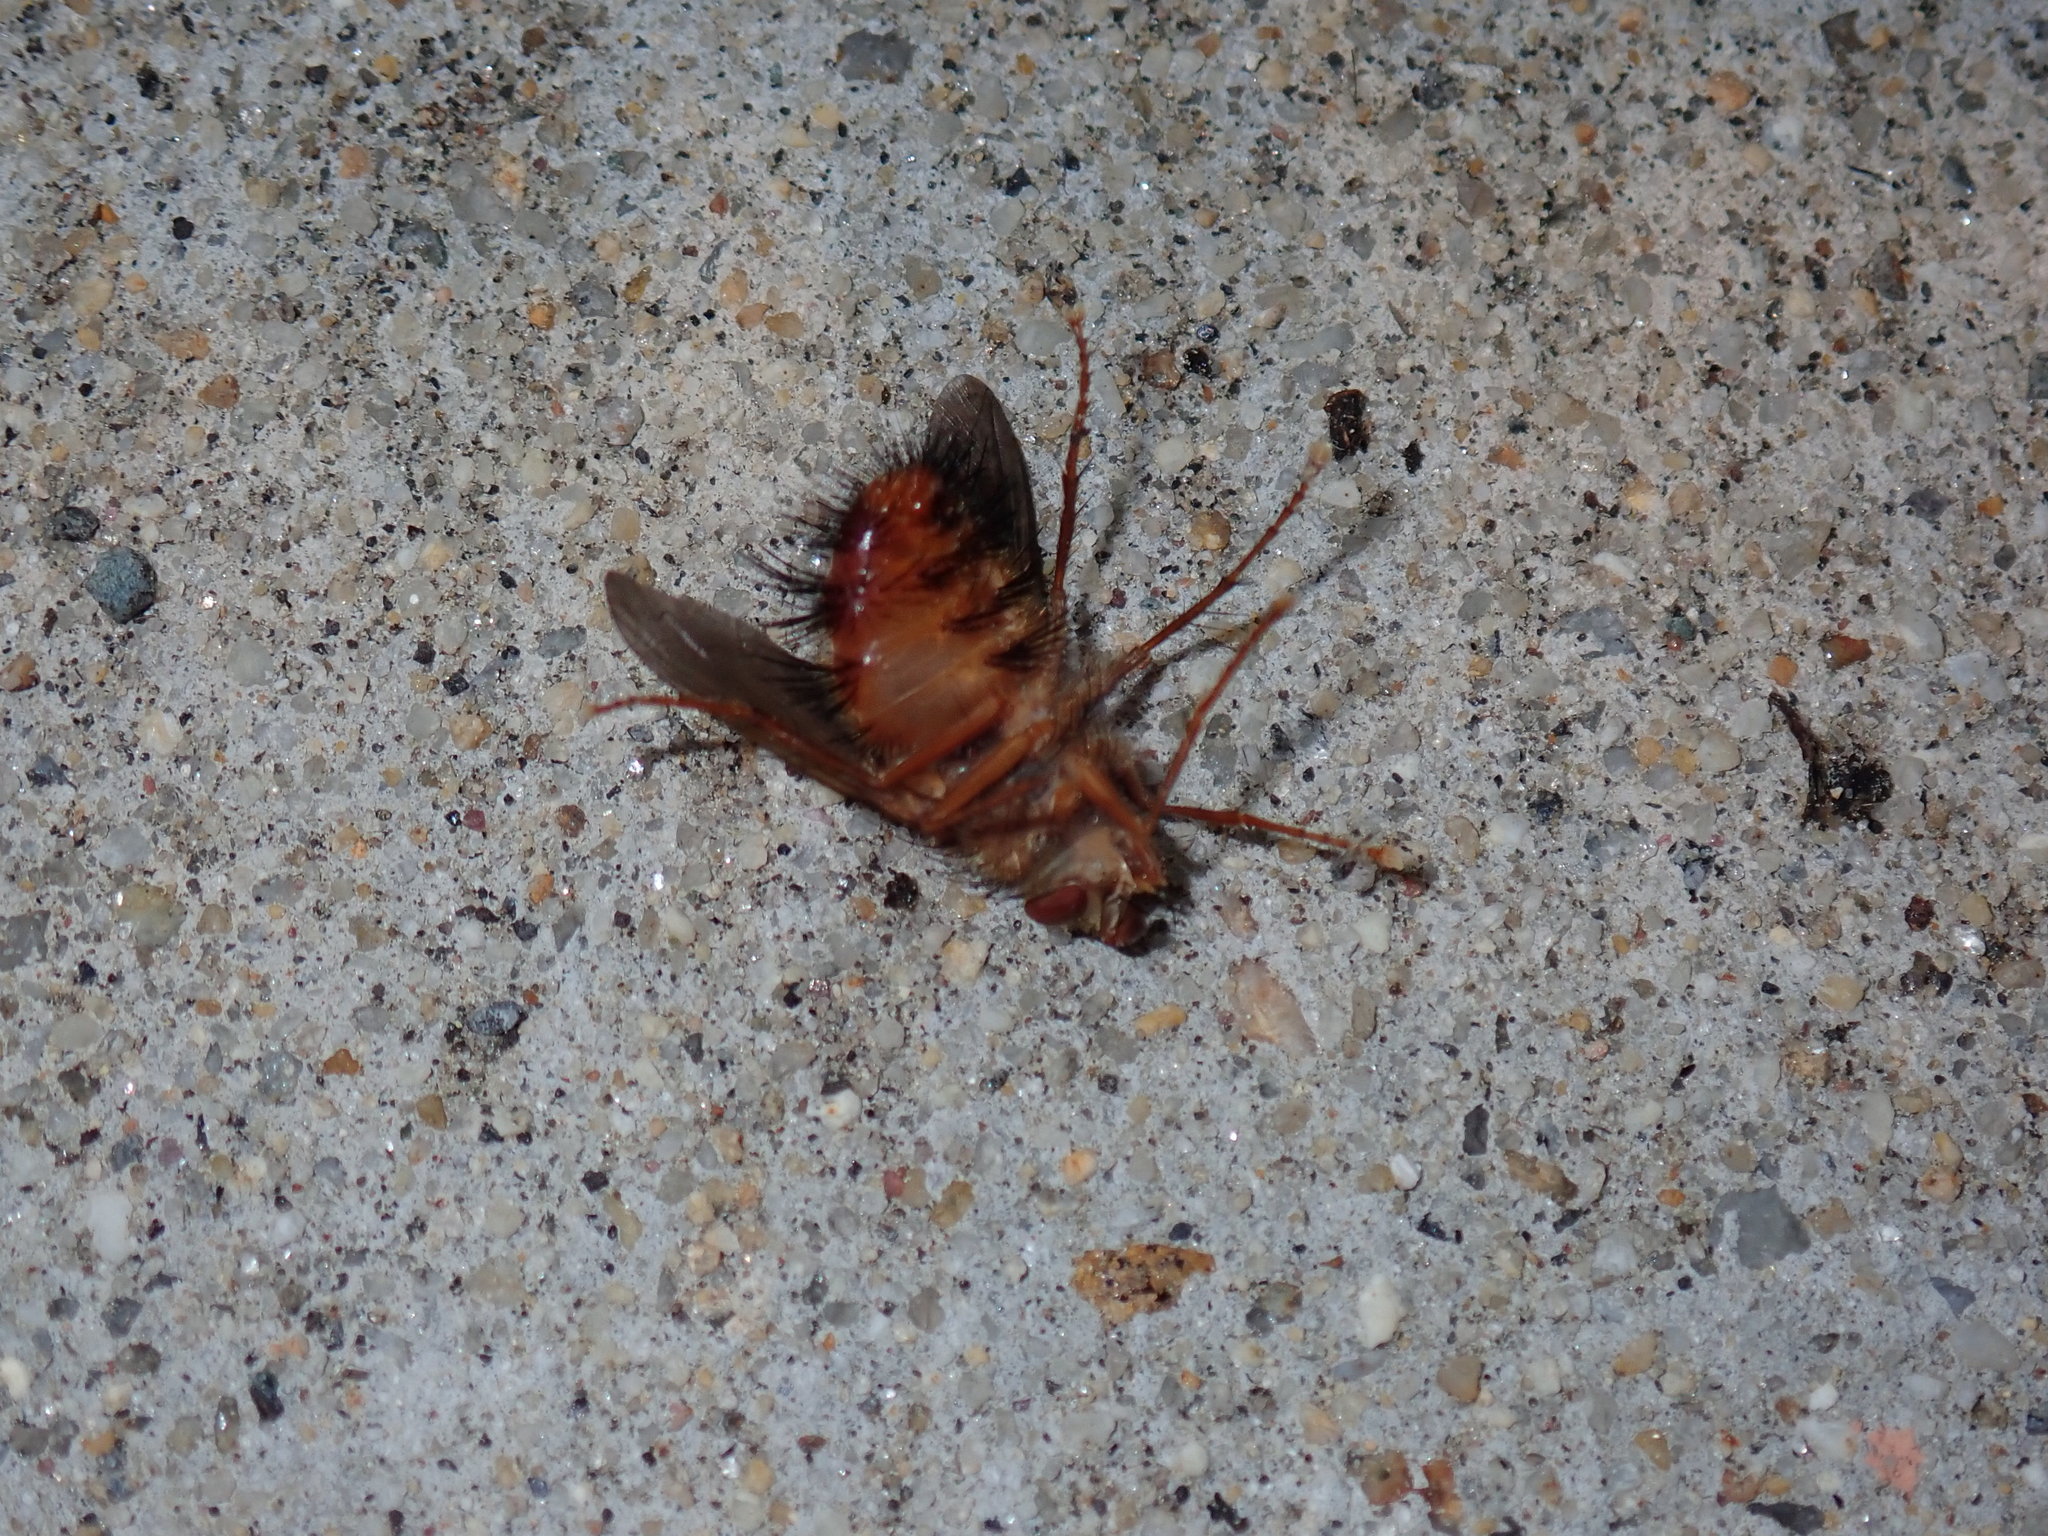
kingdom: Animalia
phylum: Arthropoda
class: Insecta
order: Diptera
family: Tachinidae
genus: Hystricia
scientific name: Hystricia abrupta
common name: Tomato bristle fly
